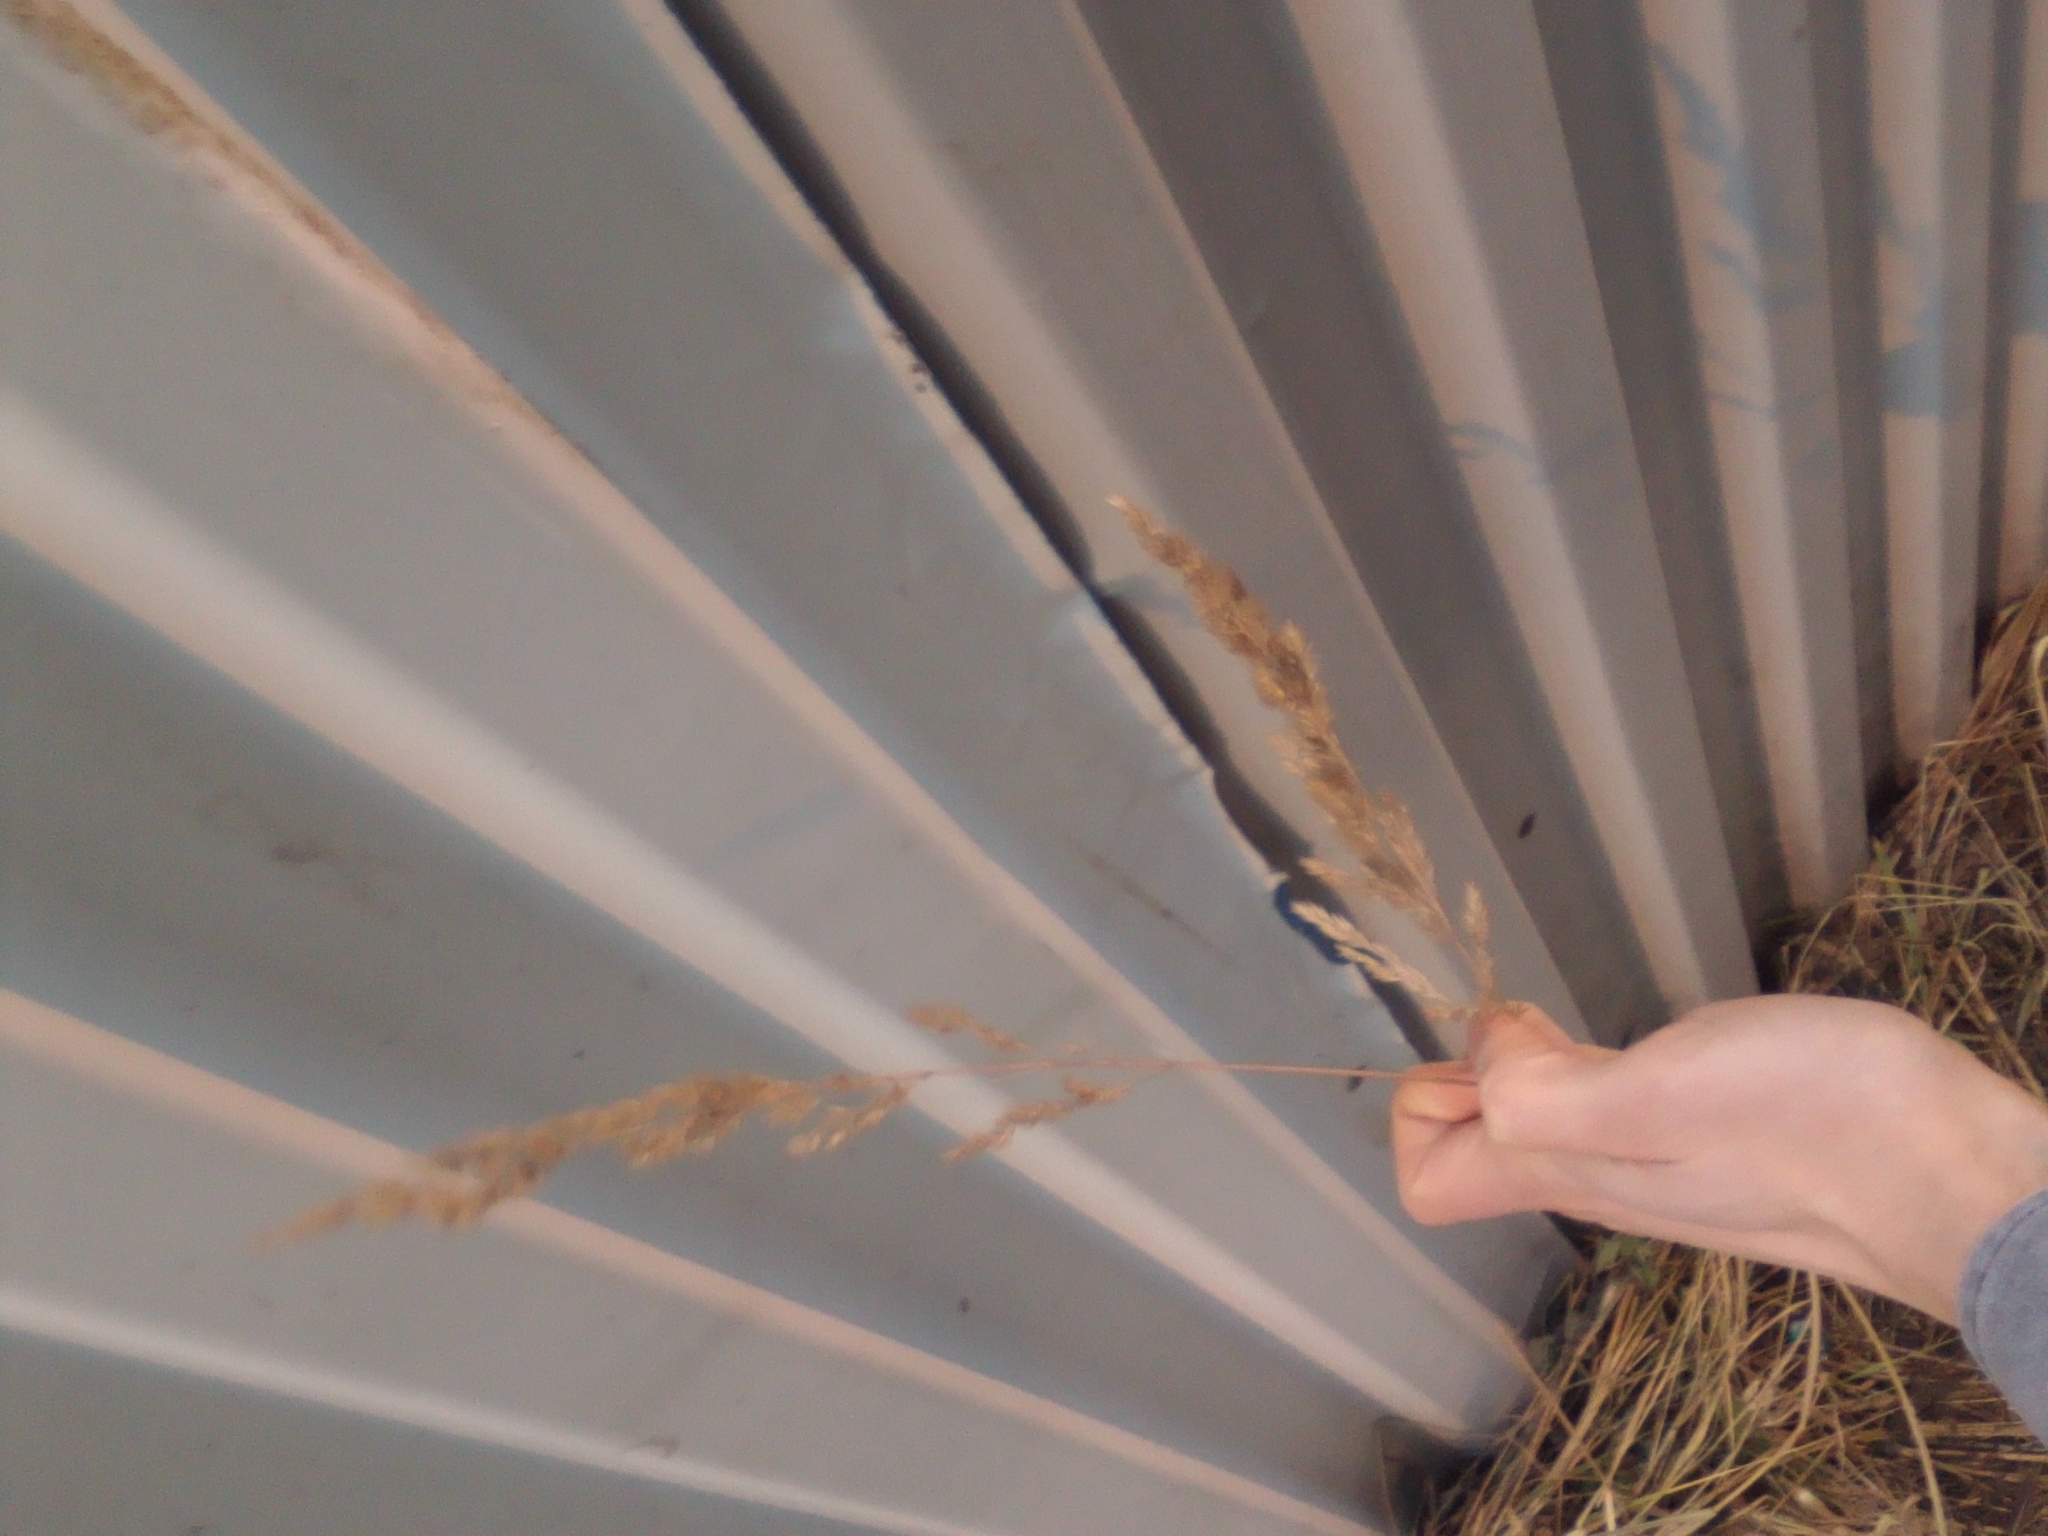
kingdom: Plantae
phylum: Tracheophyta
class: Liliopsida
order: Poales
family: Poaceae
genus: Calamagrostis
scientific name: Calamagrostis epigejos
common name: Wood small-reed
